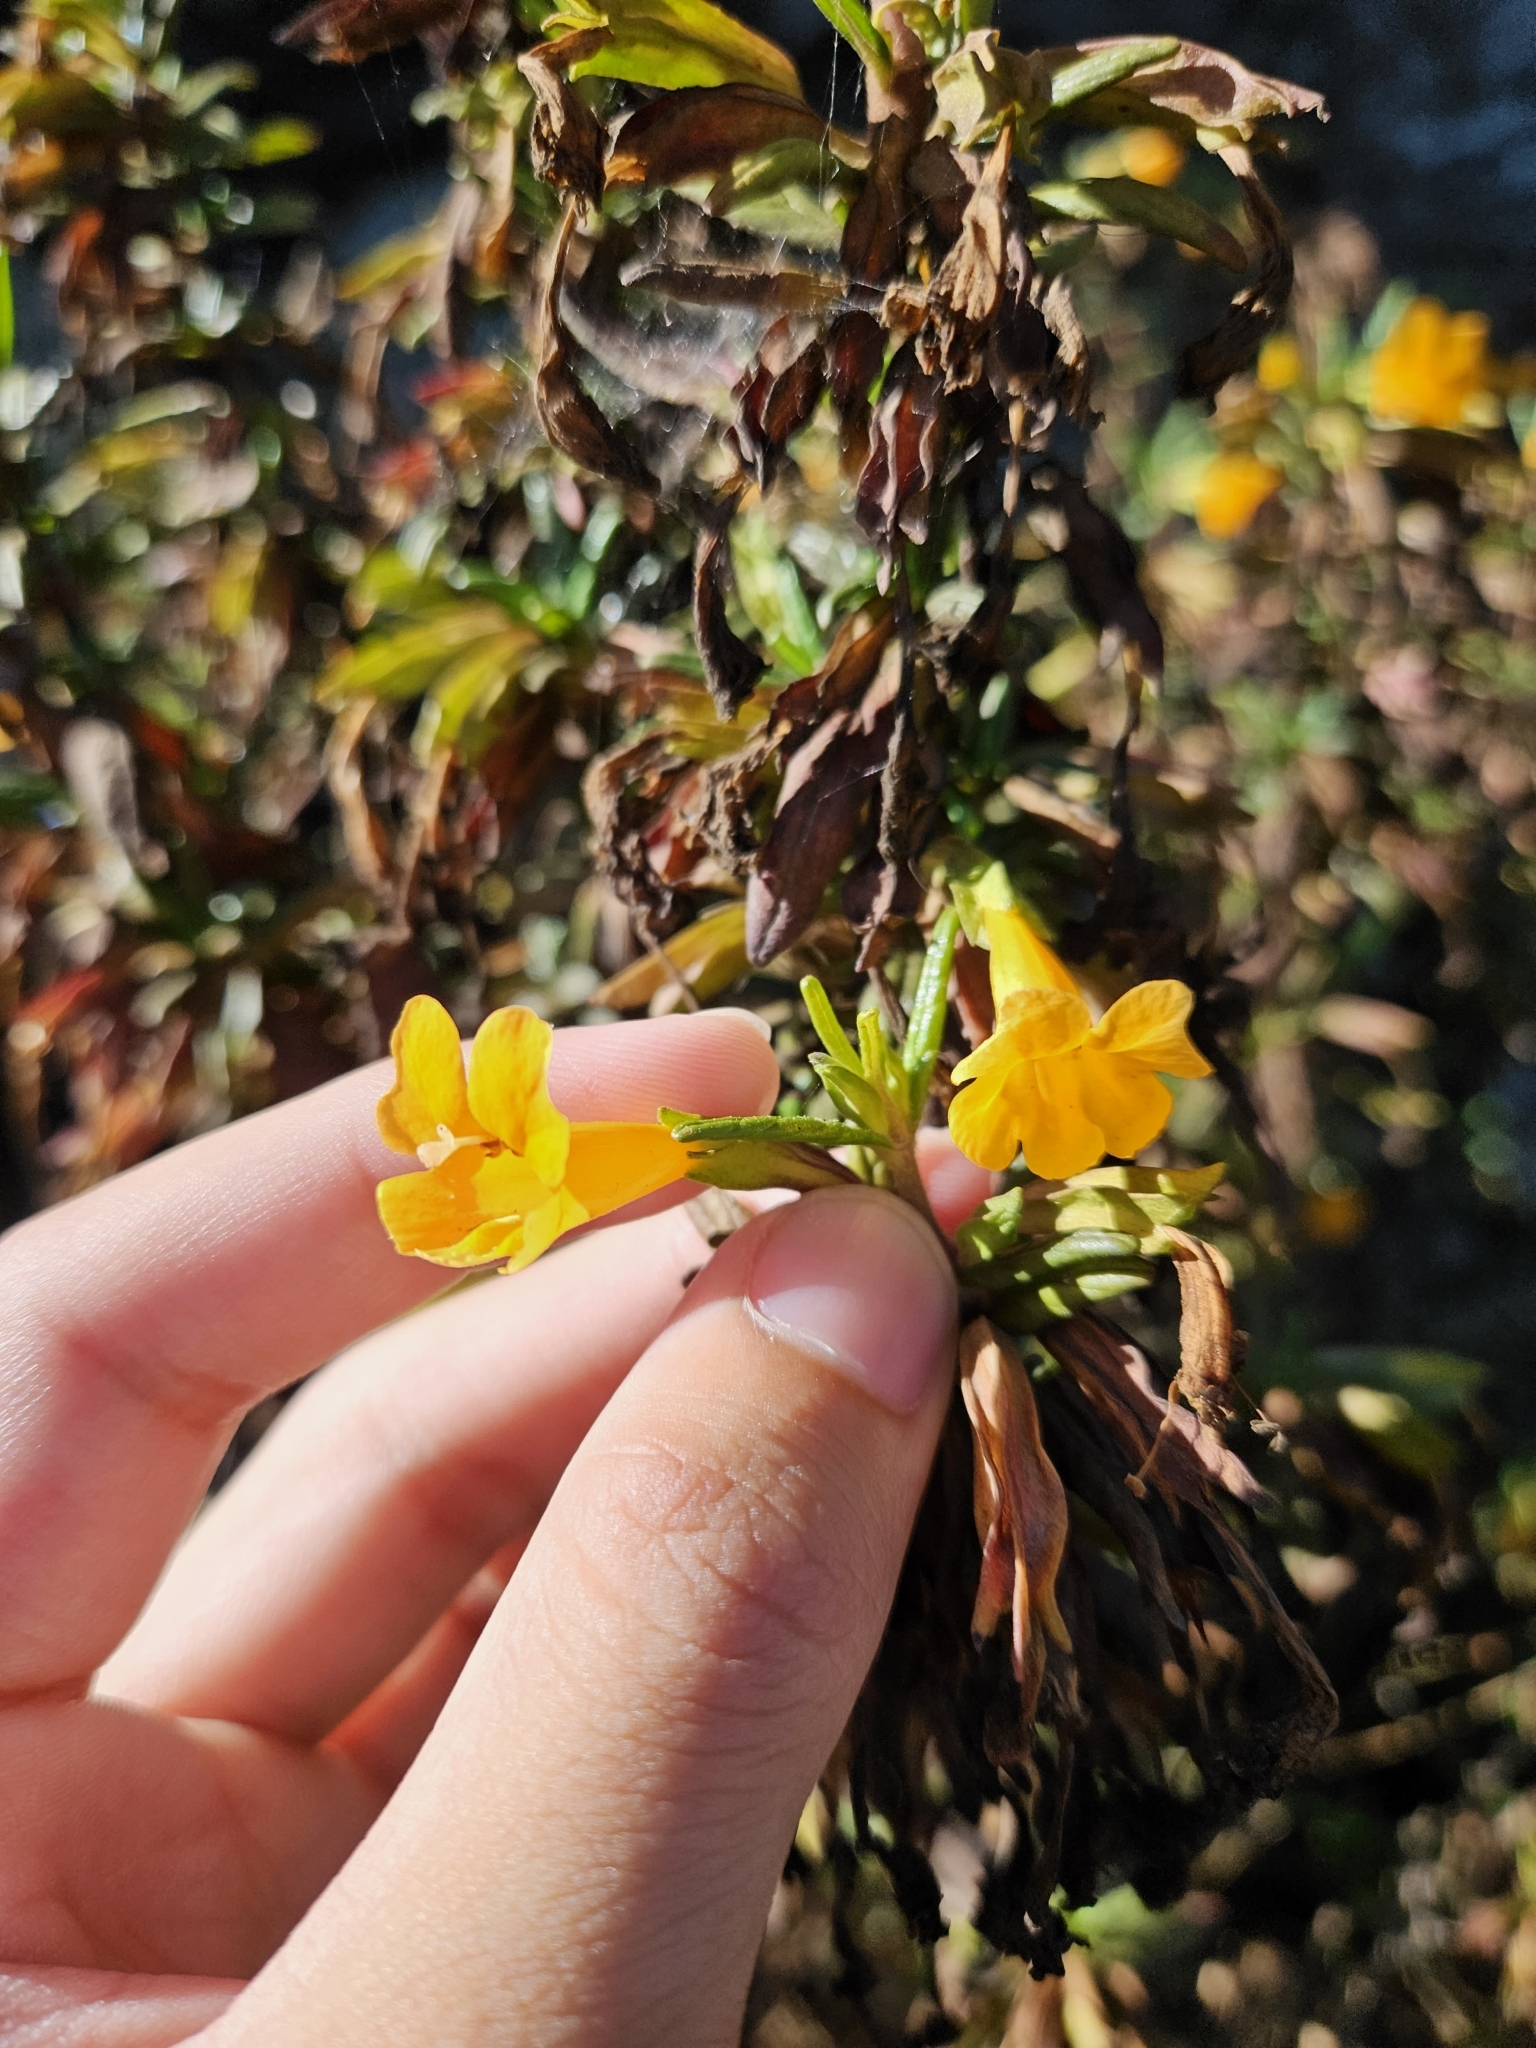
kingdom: Plantae
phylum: Tracheophyta
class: Magnoliopsida
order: Lamiales
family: Phrymaceae
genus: Diplacus
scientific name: Diplacus aurantiacus
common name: Bush monkey-flower
